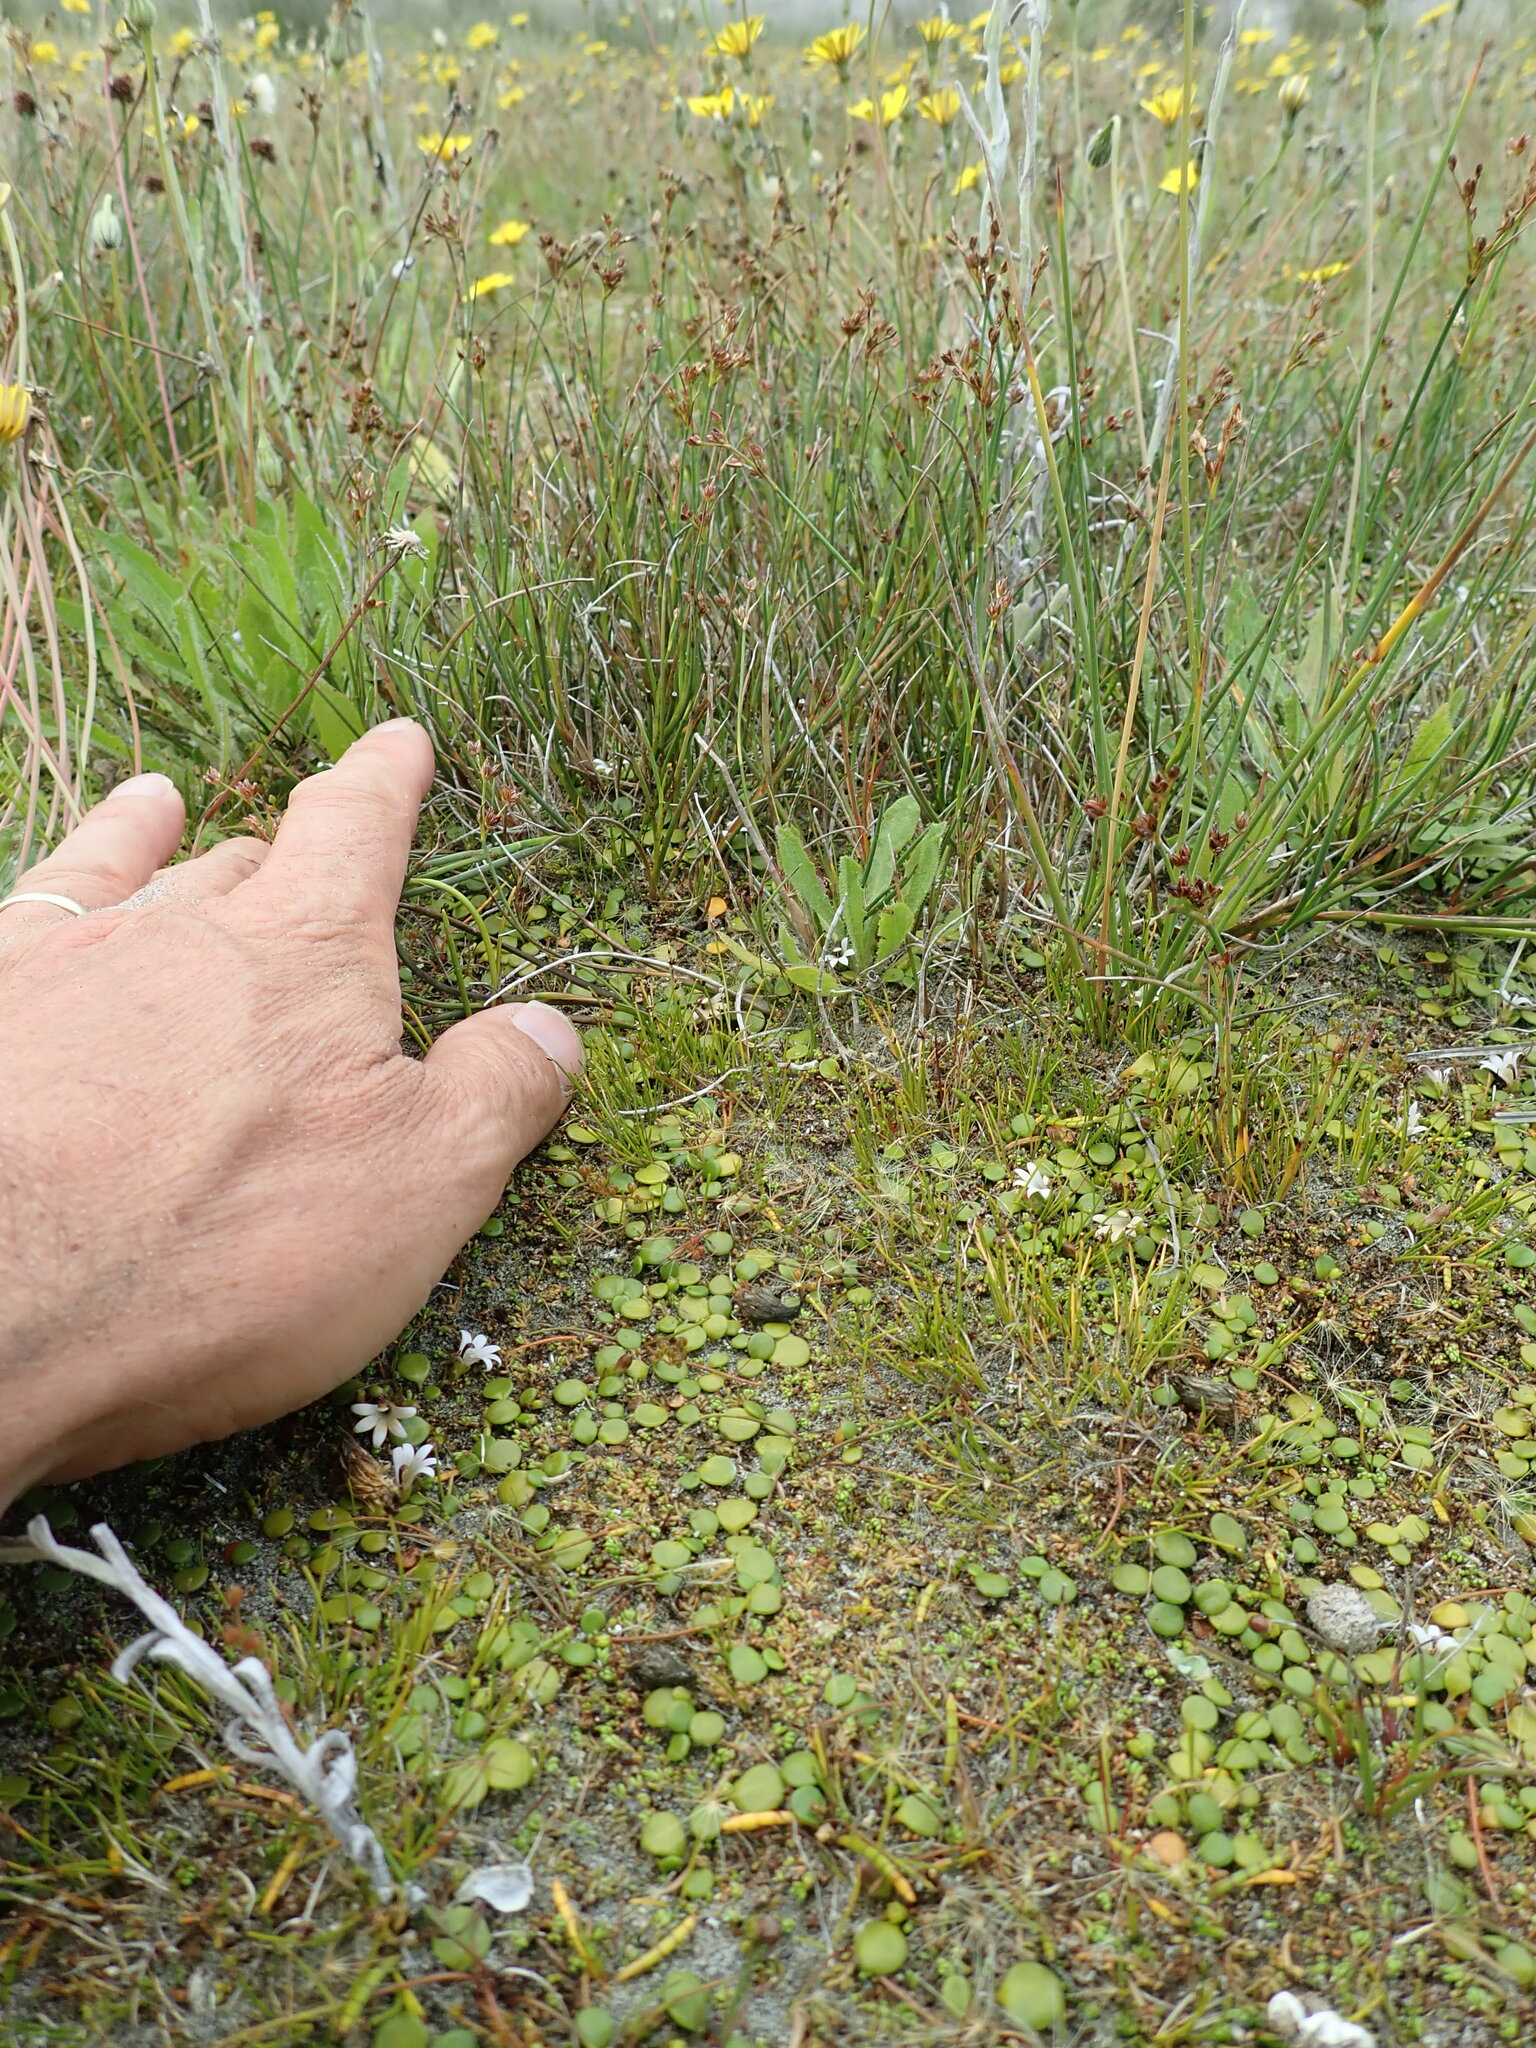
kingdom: Plantae
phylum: Tracheophyta
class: Liliopsida
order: Poales
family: Juncaceae
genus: Juncus
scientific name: Juncus articulatus
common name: Jointed rush
